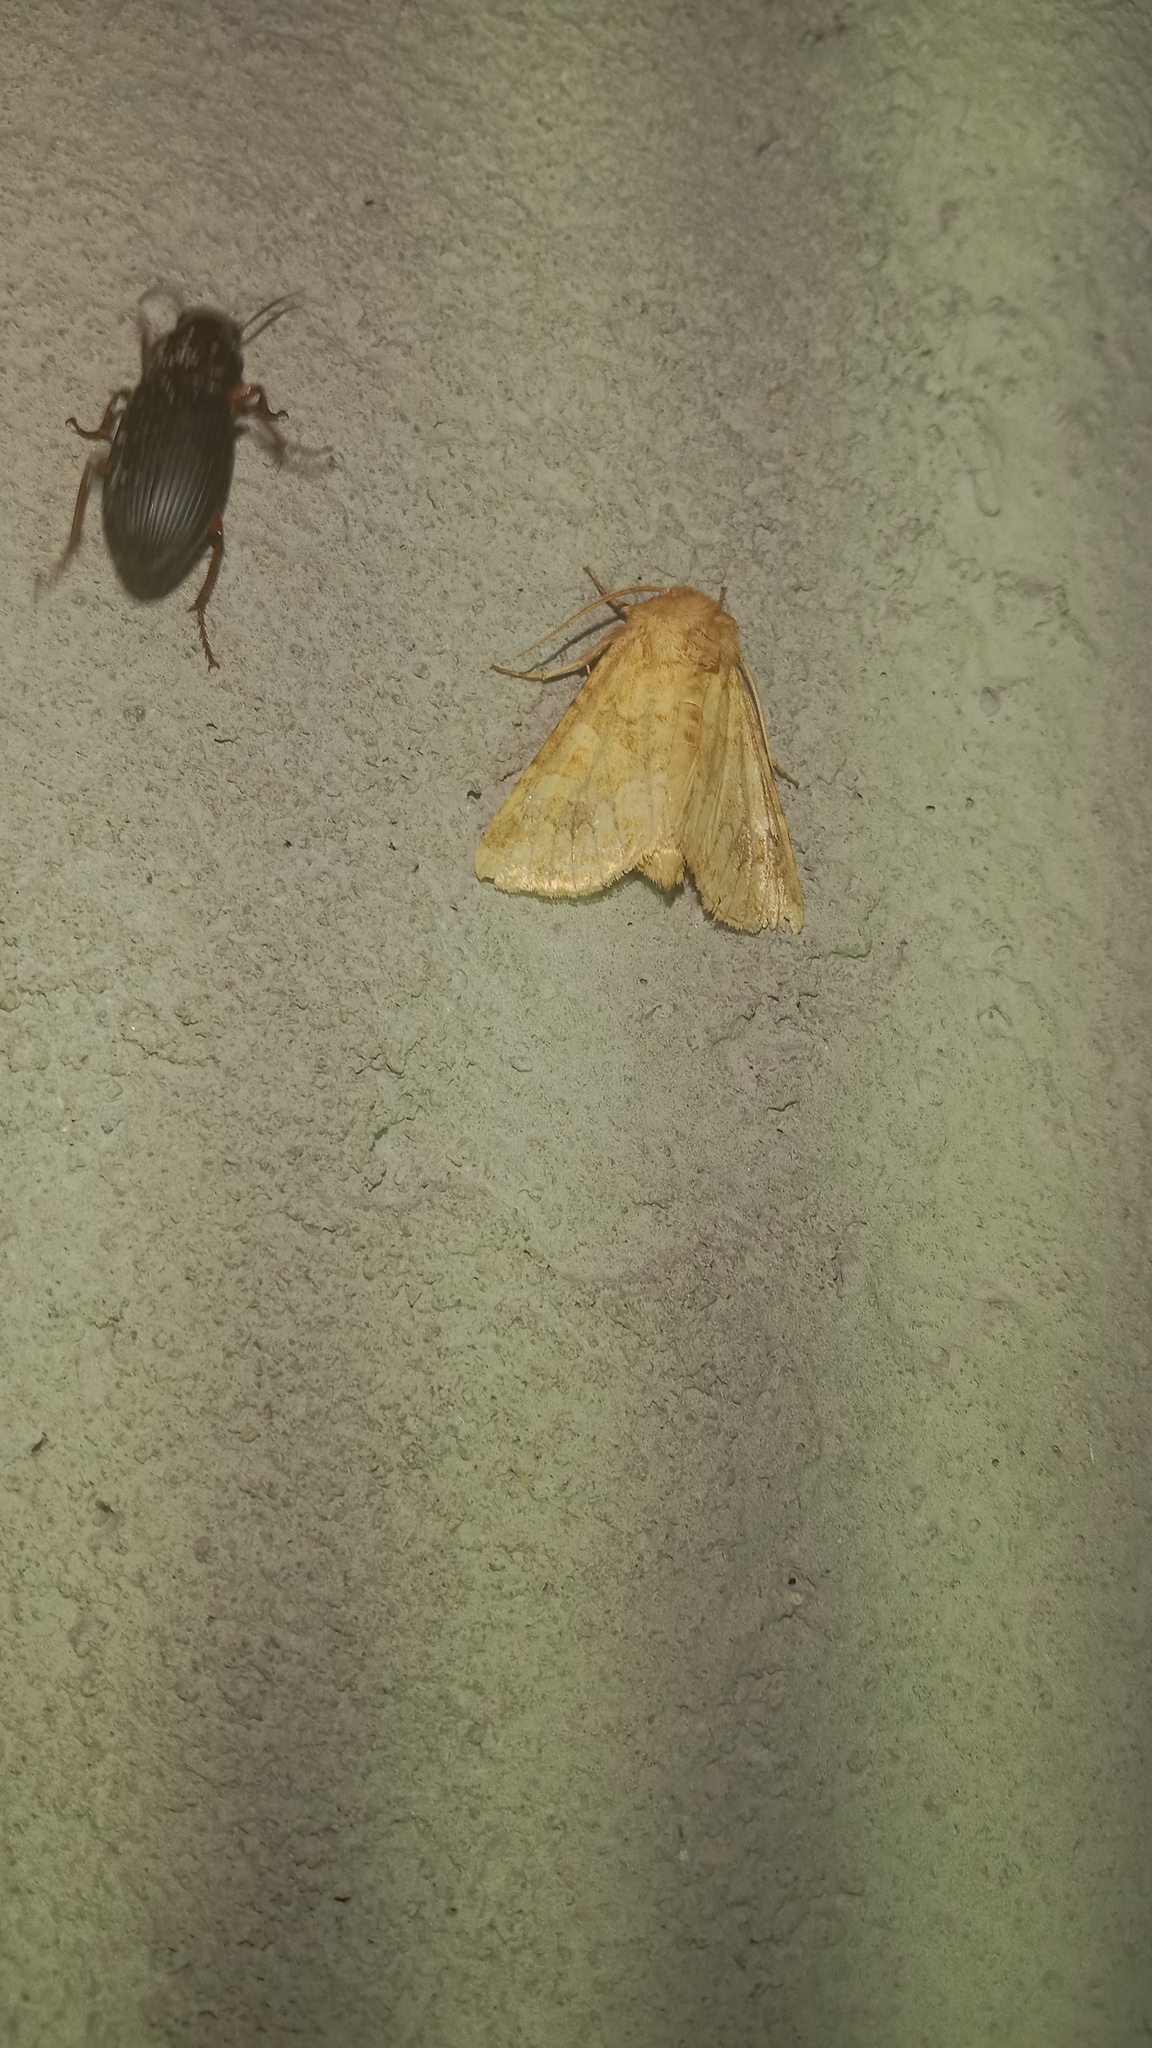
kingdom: Animalia
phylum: Arthropoda
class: Insecta
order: Lepidoptera
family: Noctuidae
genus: Conisania
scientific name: Conisania luteago
